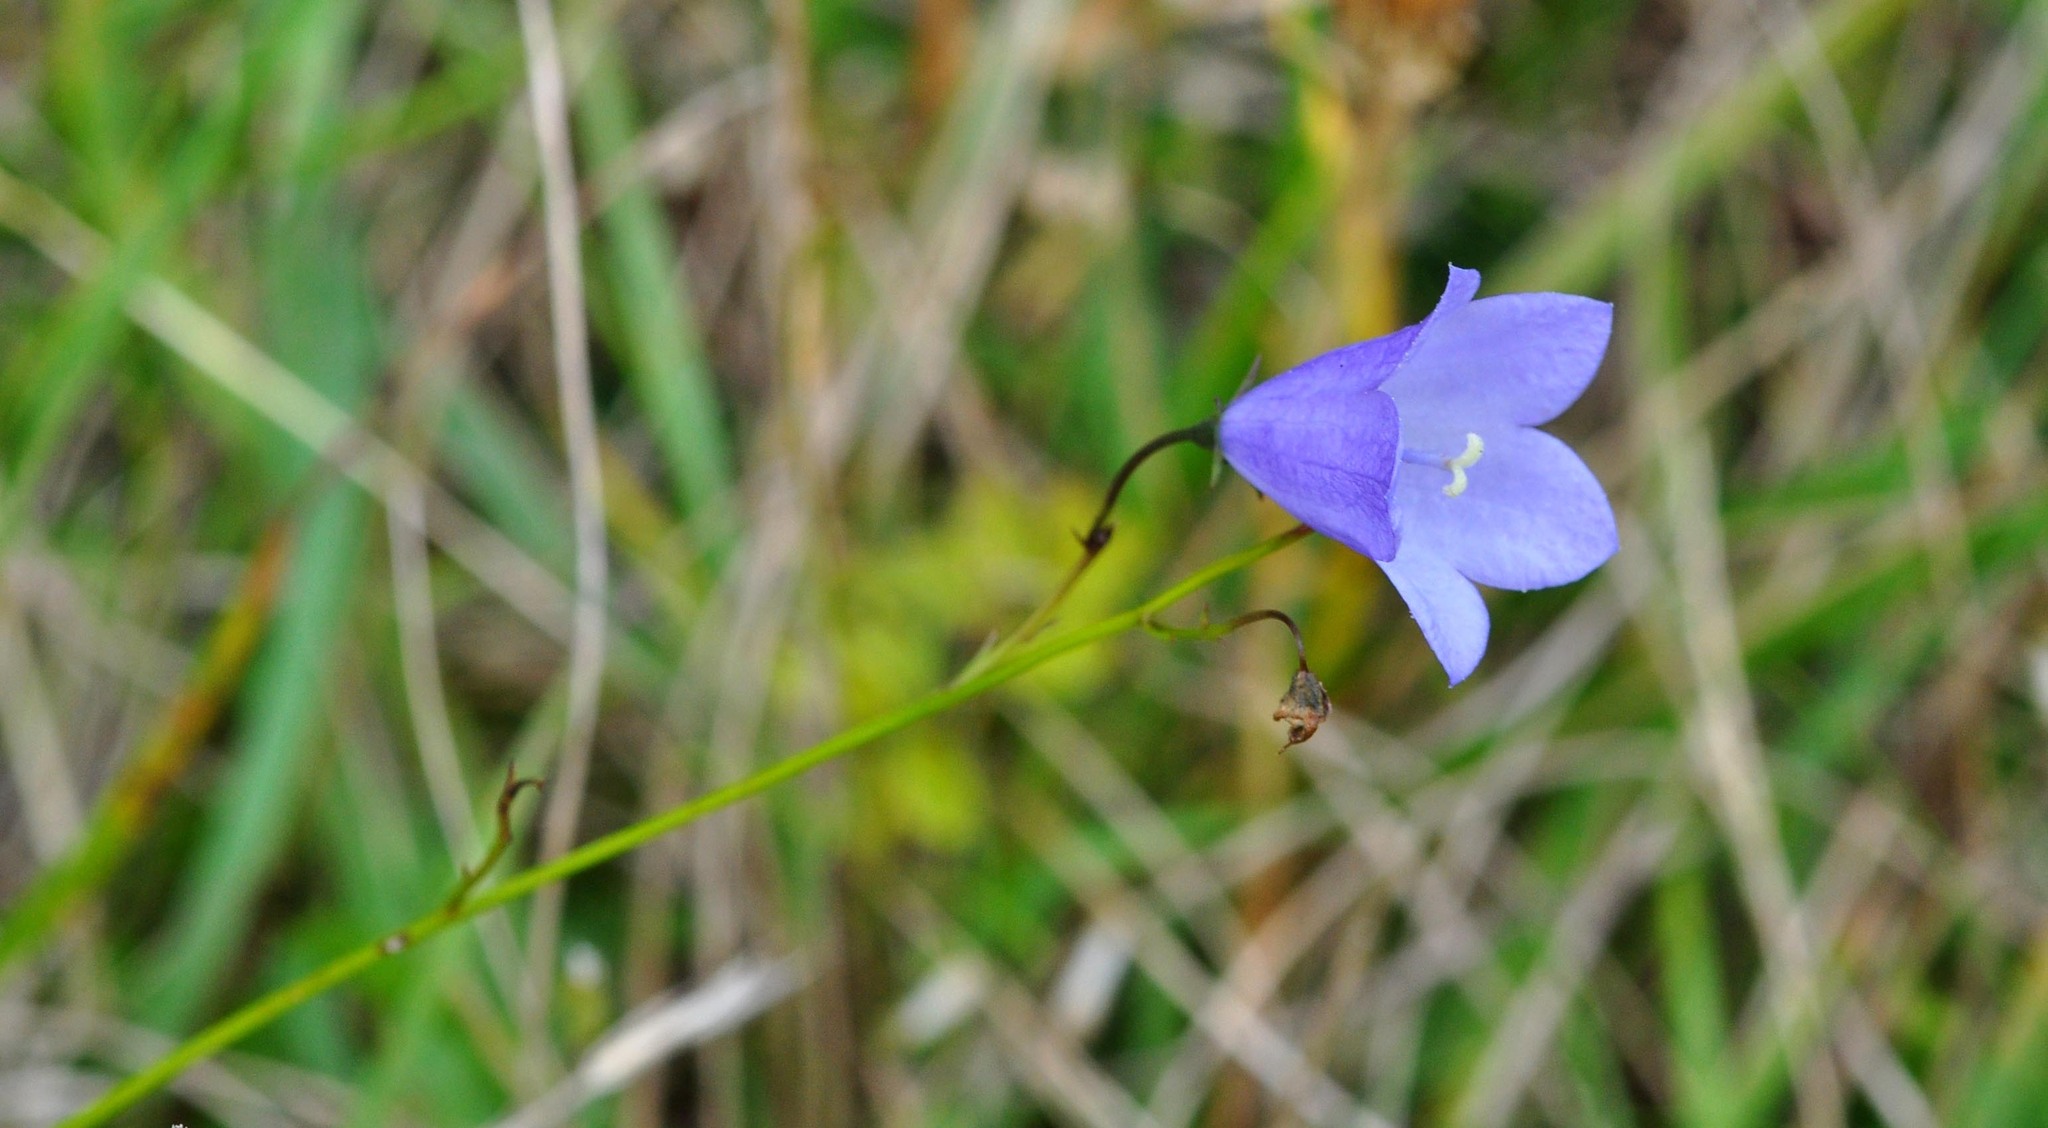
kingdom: Plantae
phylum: Tracheophyta
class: Magnoliopsida
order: Asterales
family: Campanulaceae
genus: Campanula
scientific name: Campanula rotundifolia
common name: Harebell
